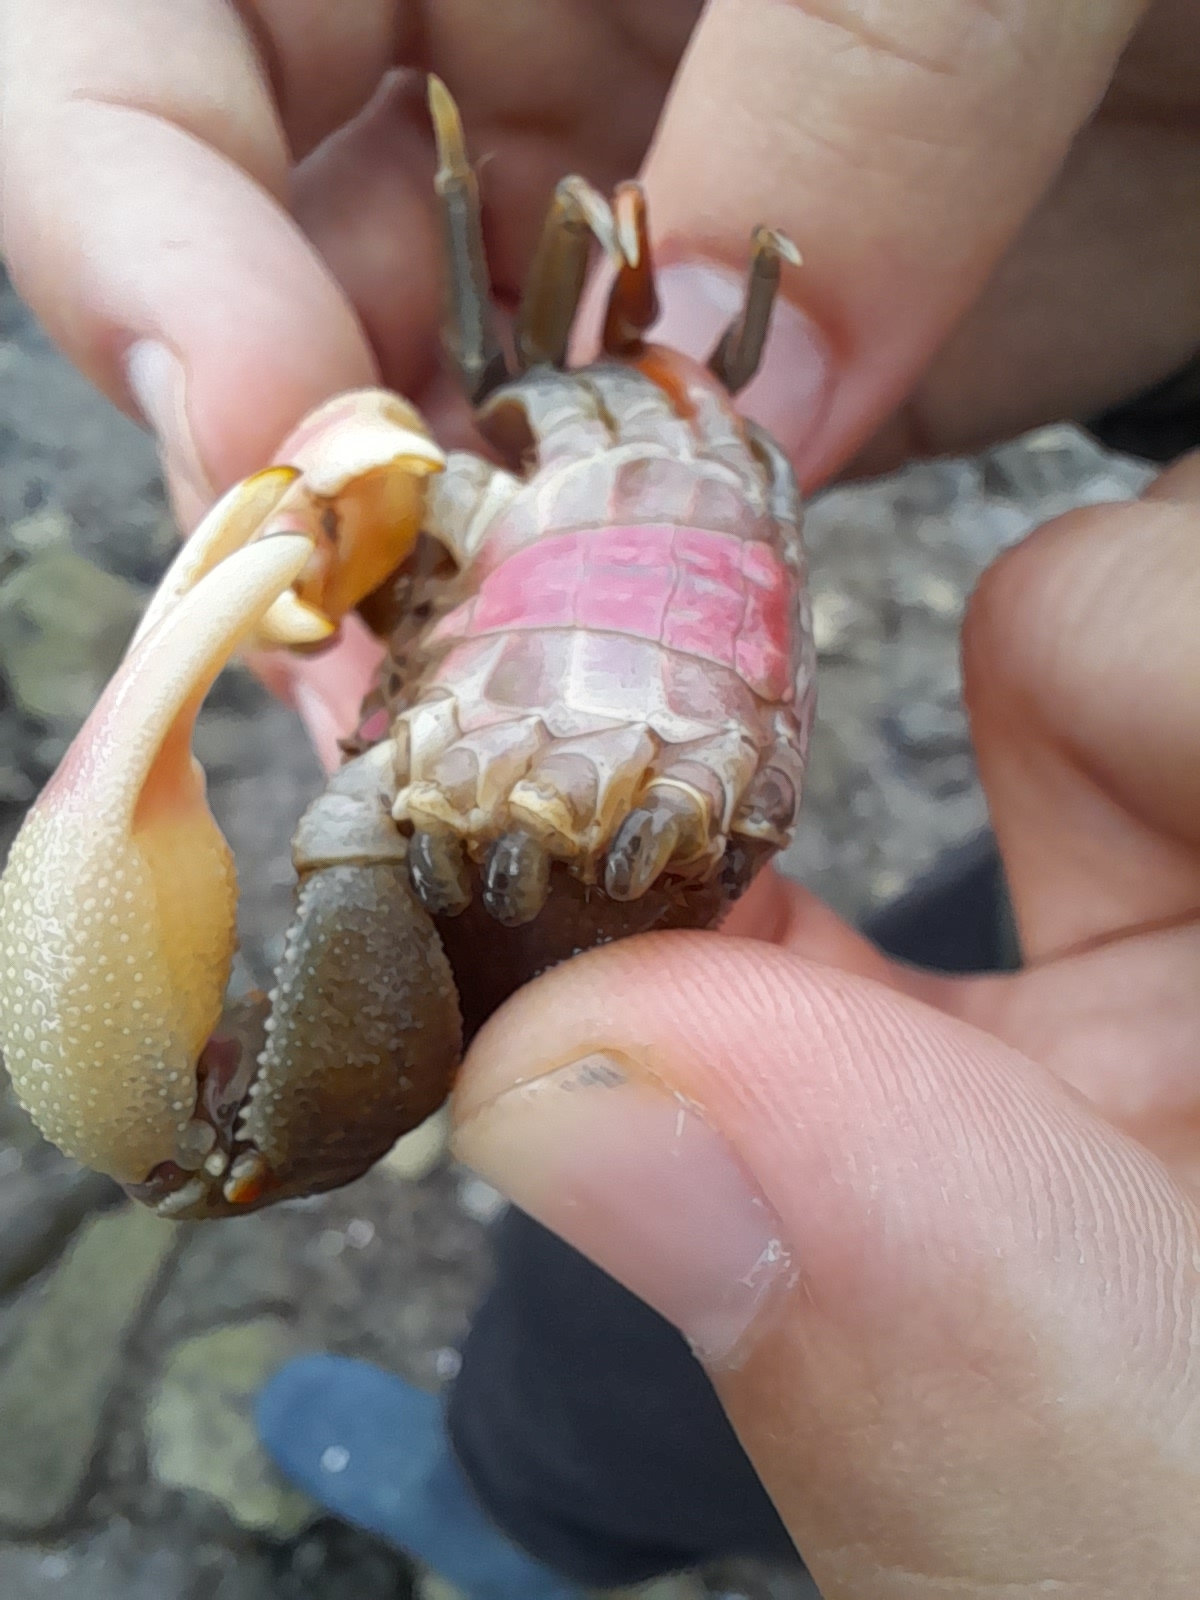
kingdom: Animalia
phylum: Arthropoda
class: Malacostraca
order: Decapoda
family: Varunidae
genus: Neohelice
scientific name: Neohelice granulata
